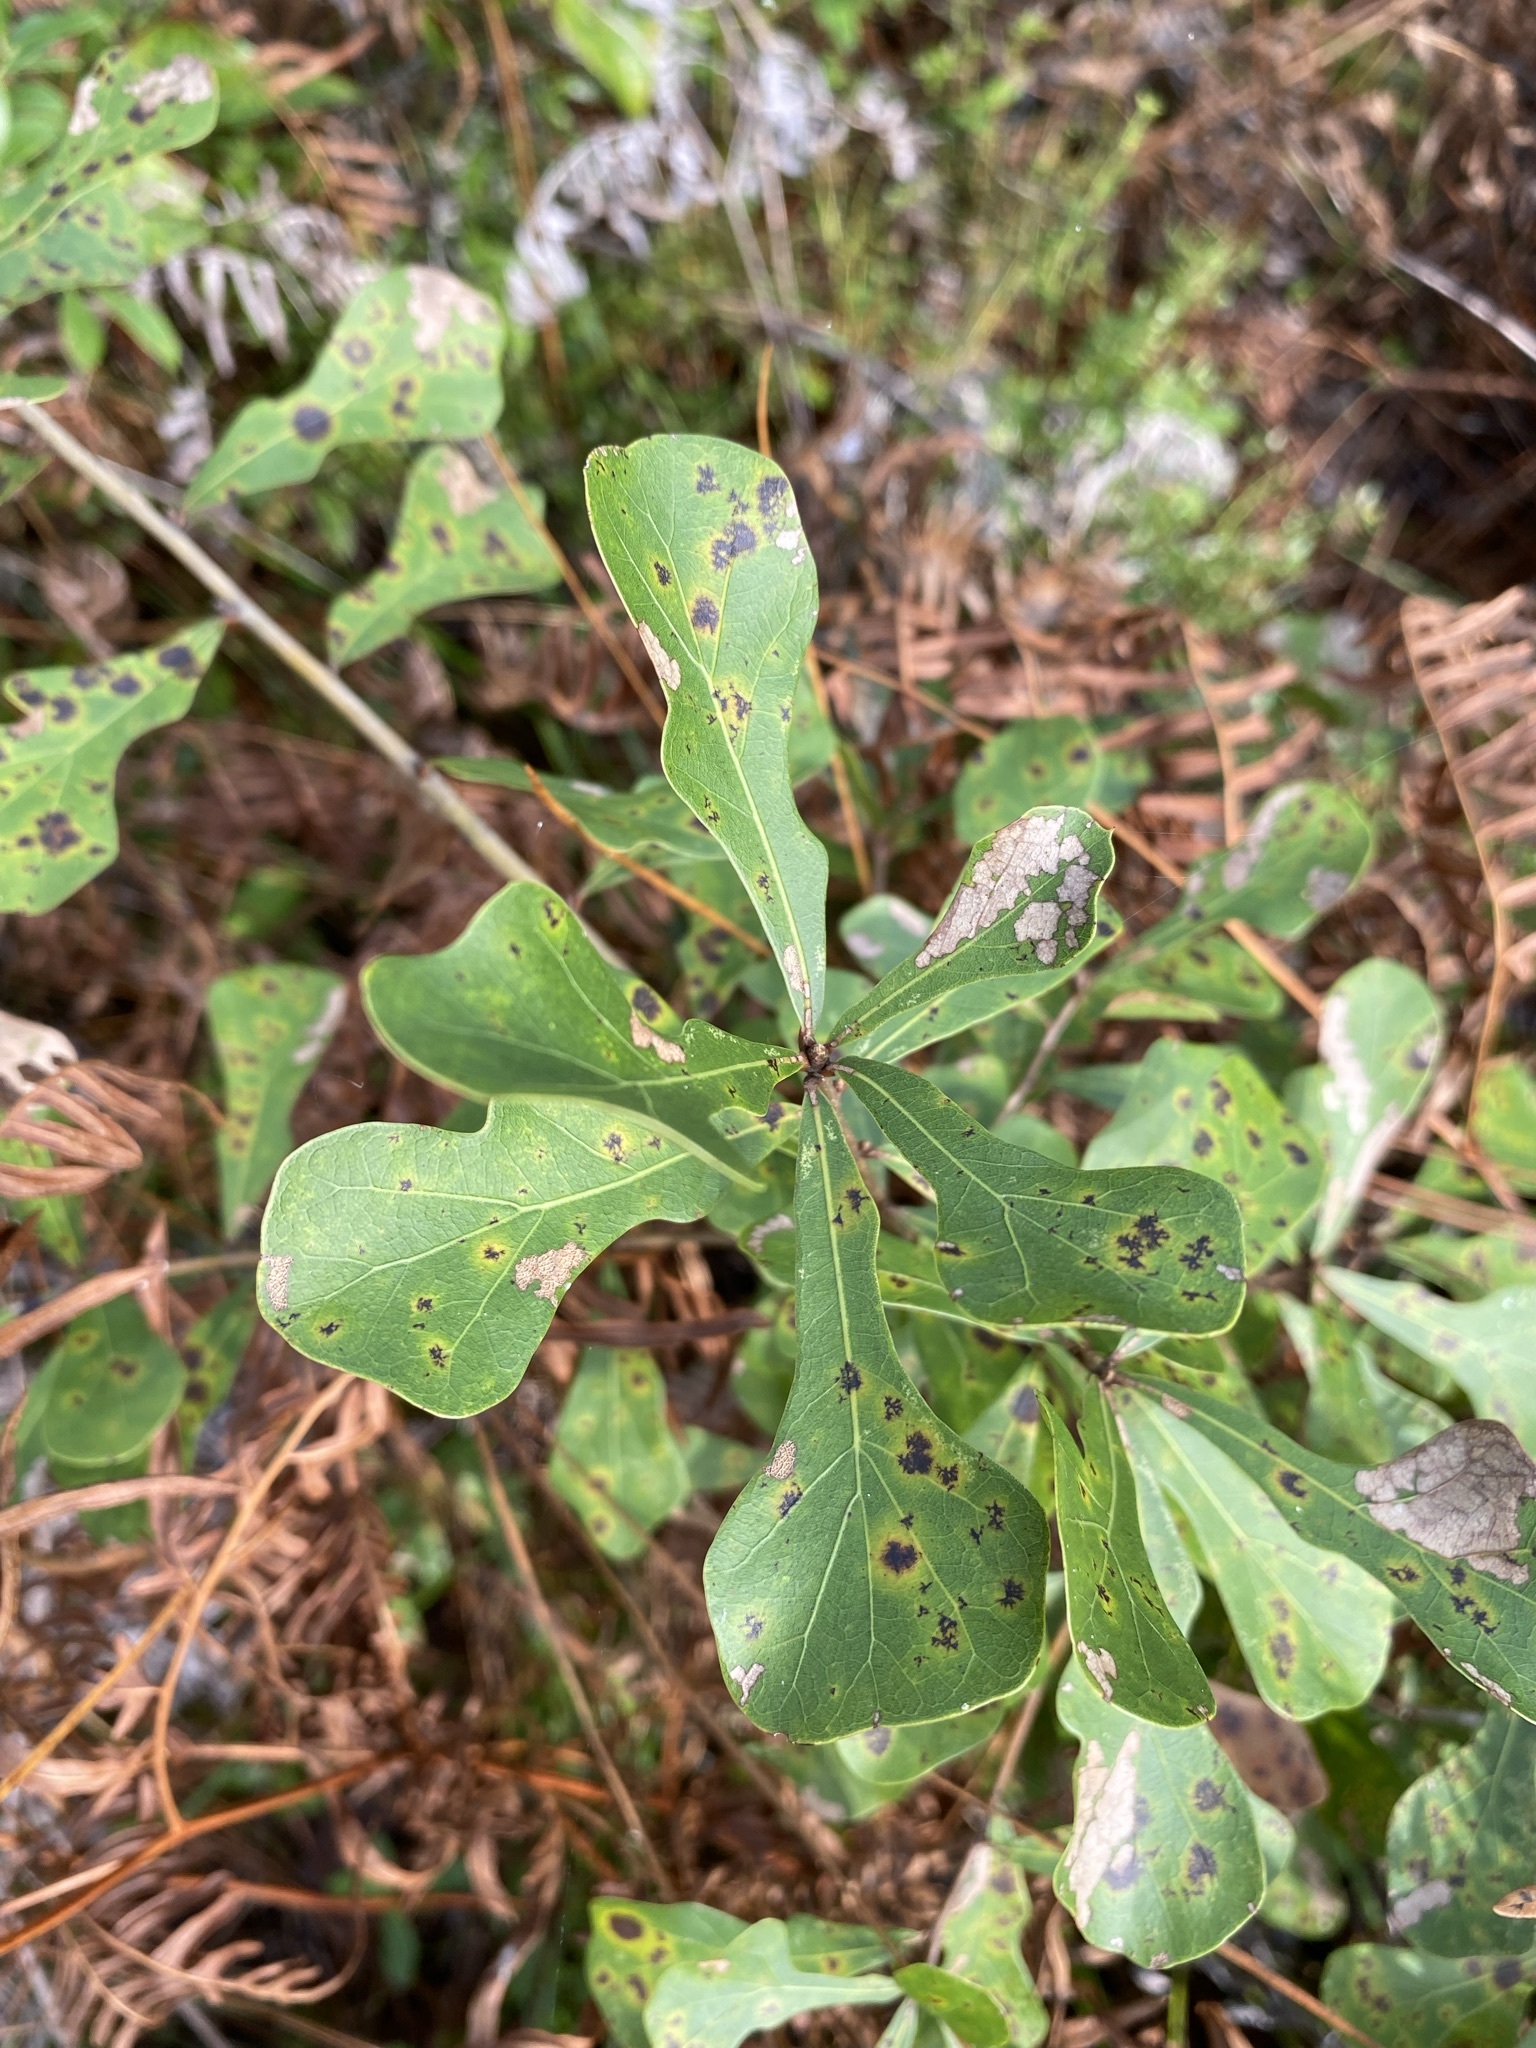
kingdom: Plantae
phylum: Tracheophyta
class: Magnoliopsida
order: Fagales
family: Fagaceae
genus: Quercus
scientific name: Quercus nigra
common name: Water oak
